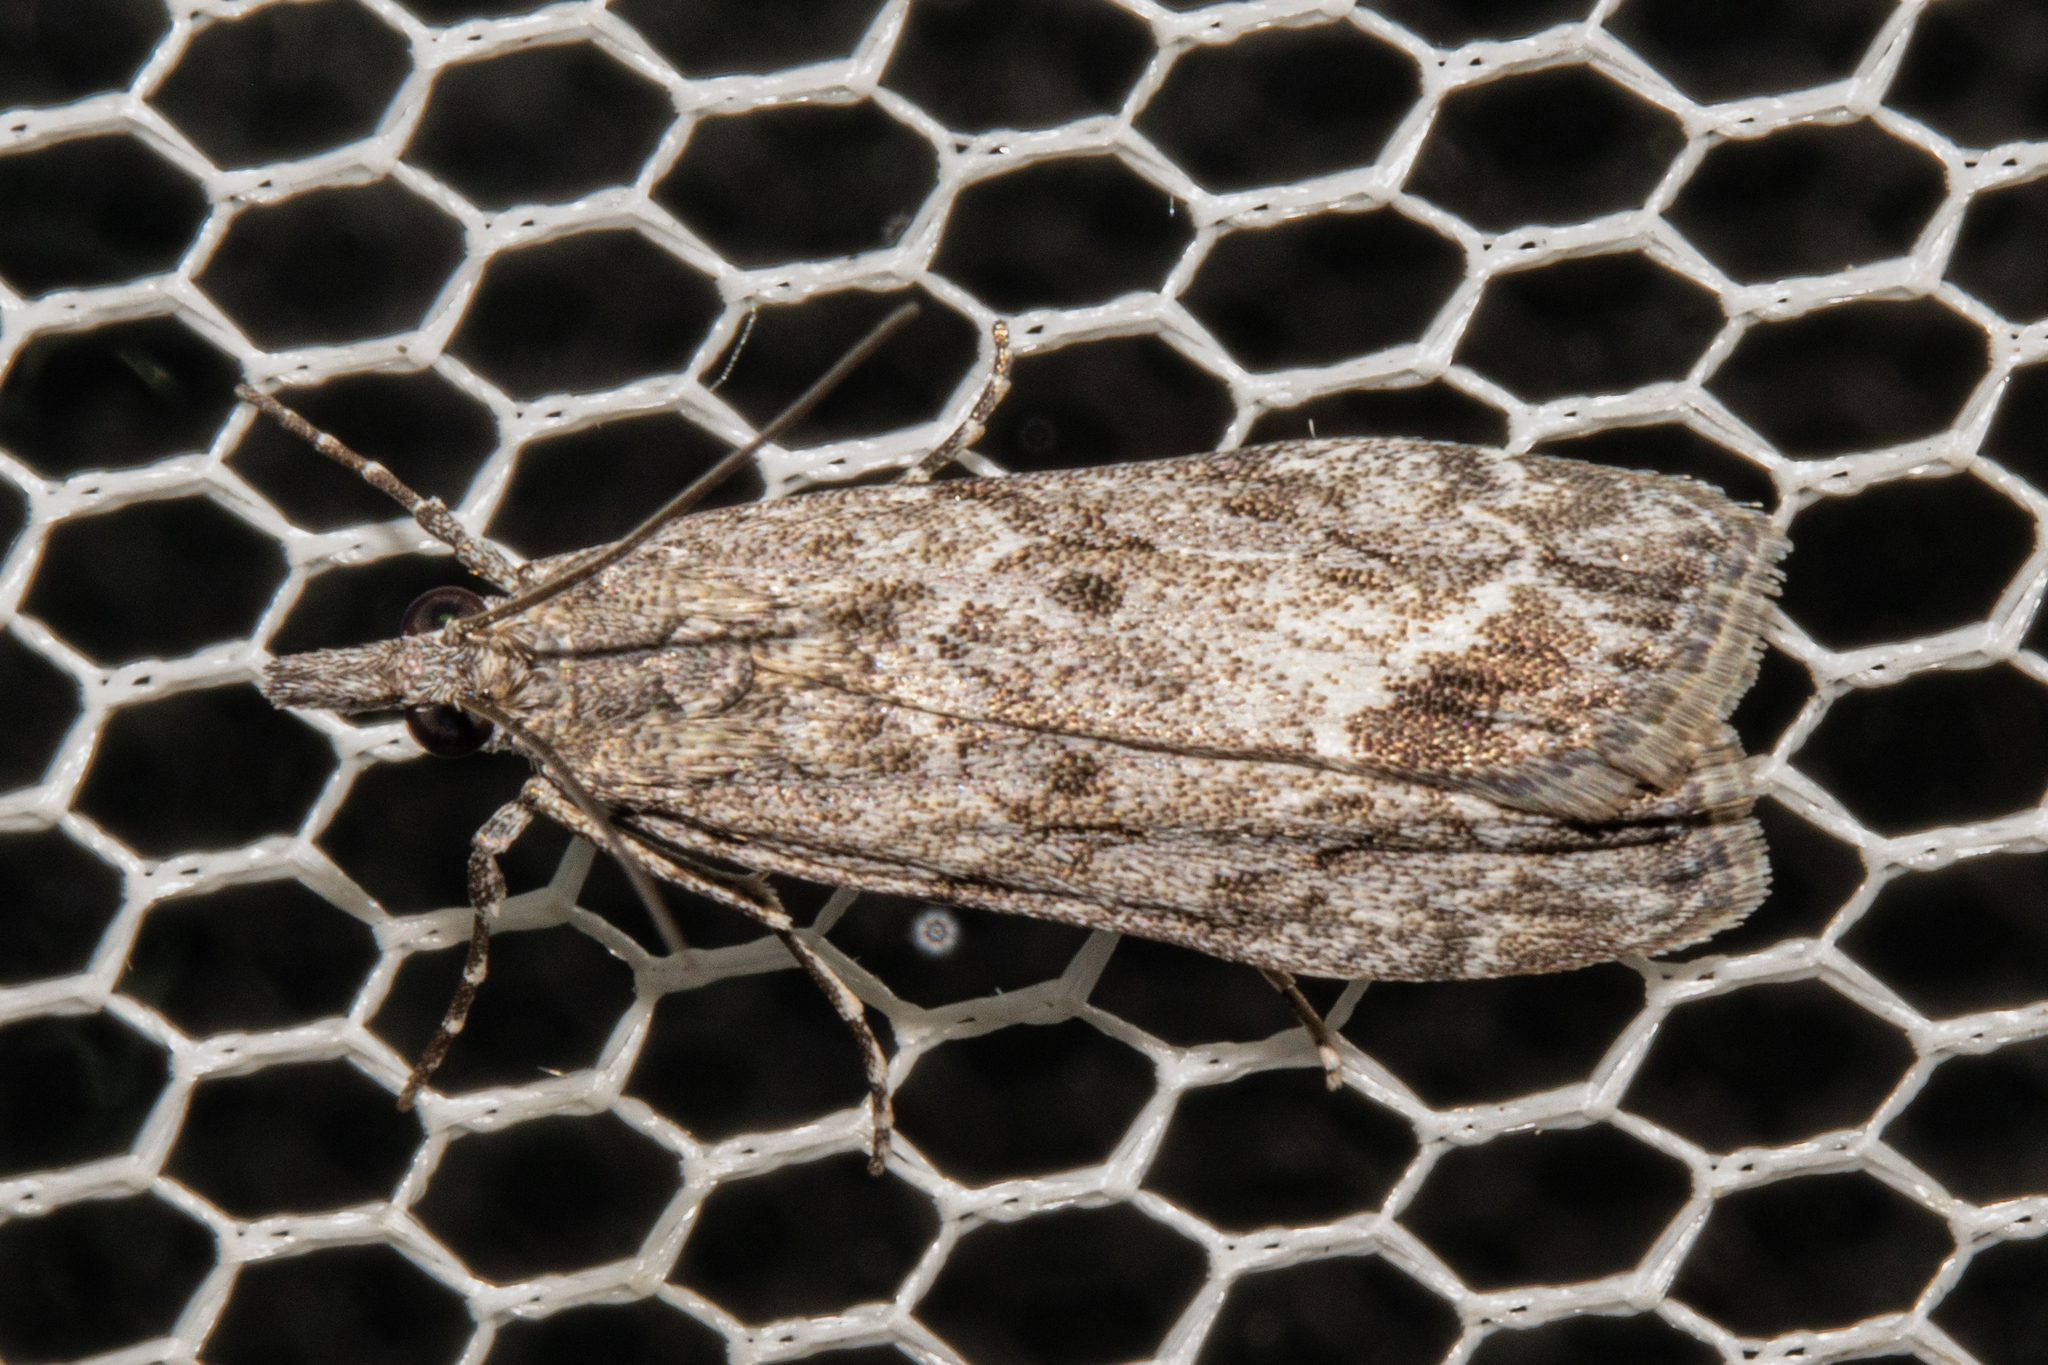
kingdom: Animalia
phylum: Arthropoda
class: Insecta
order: Lepidoptera
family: Crambidae
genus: Eudonia
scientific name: Eudonia rakaiensis
